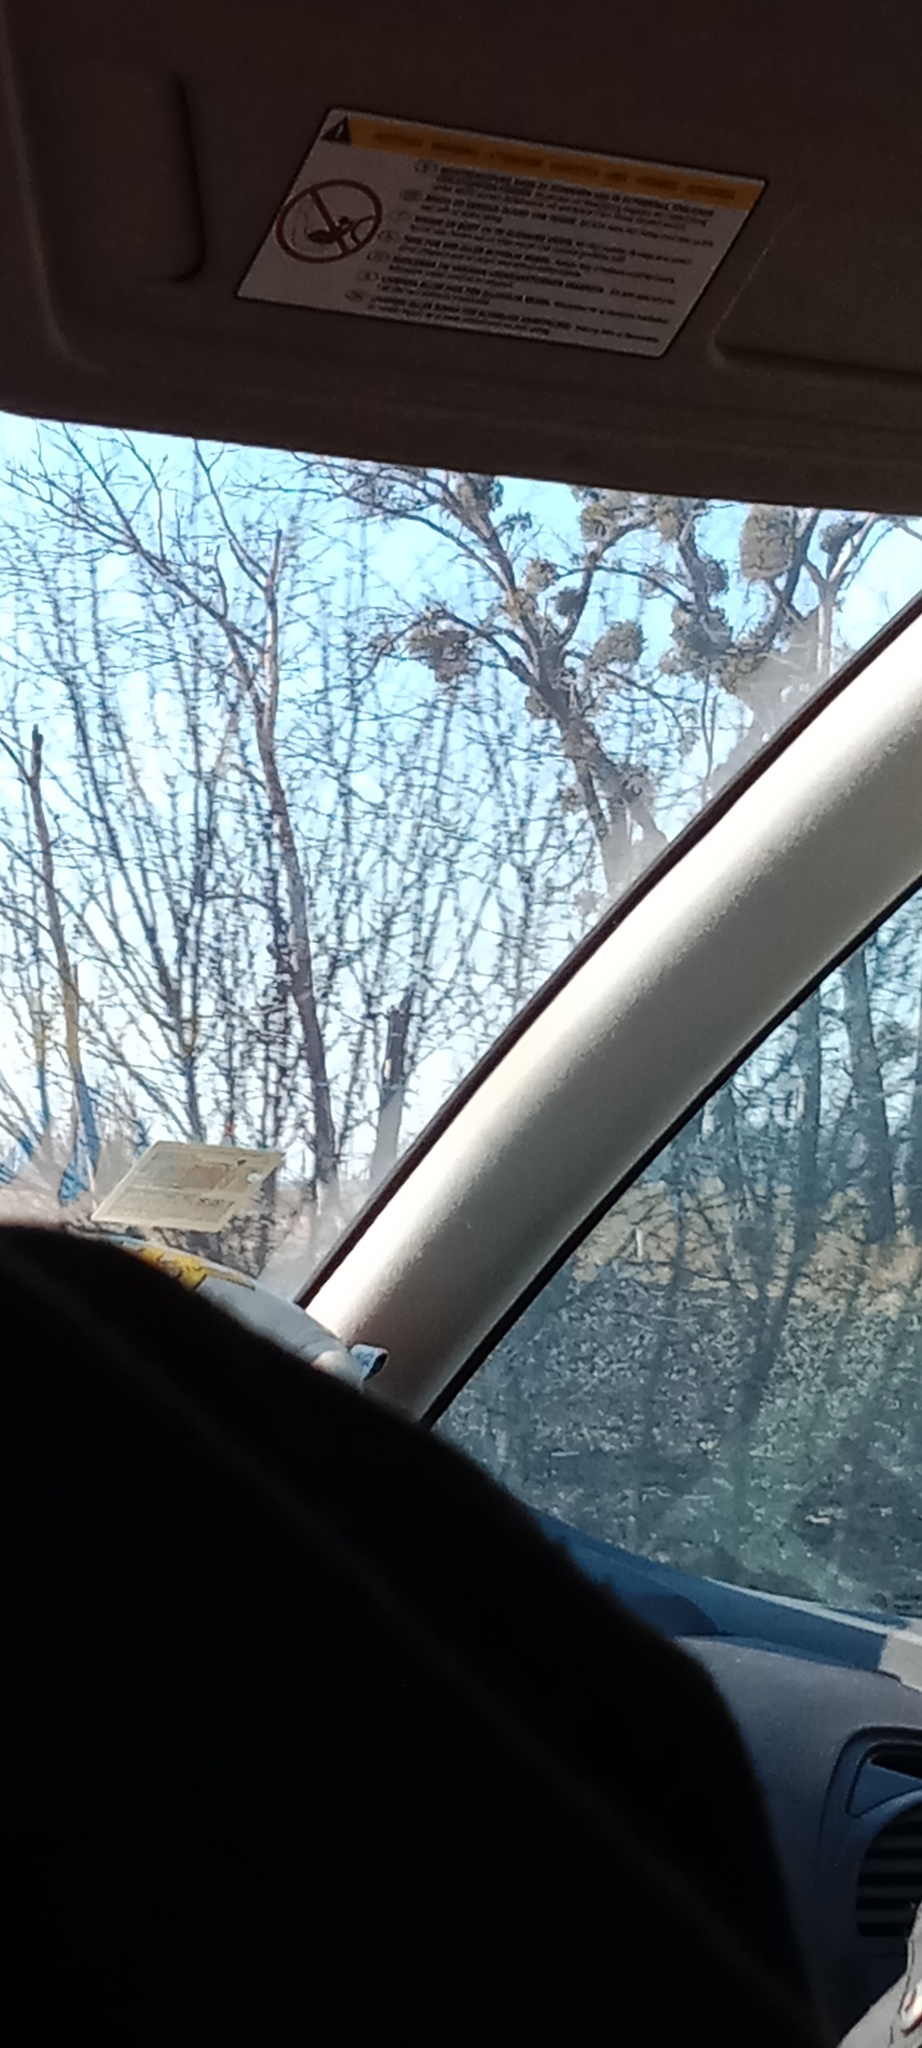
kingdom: Plantae
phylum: Tracheophyta
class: Magnoliopsida
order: Santalales
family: Viscaceae
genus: Viscum
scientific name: Viscum album
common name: Mistletoe
